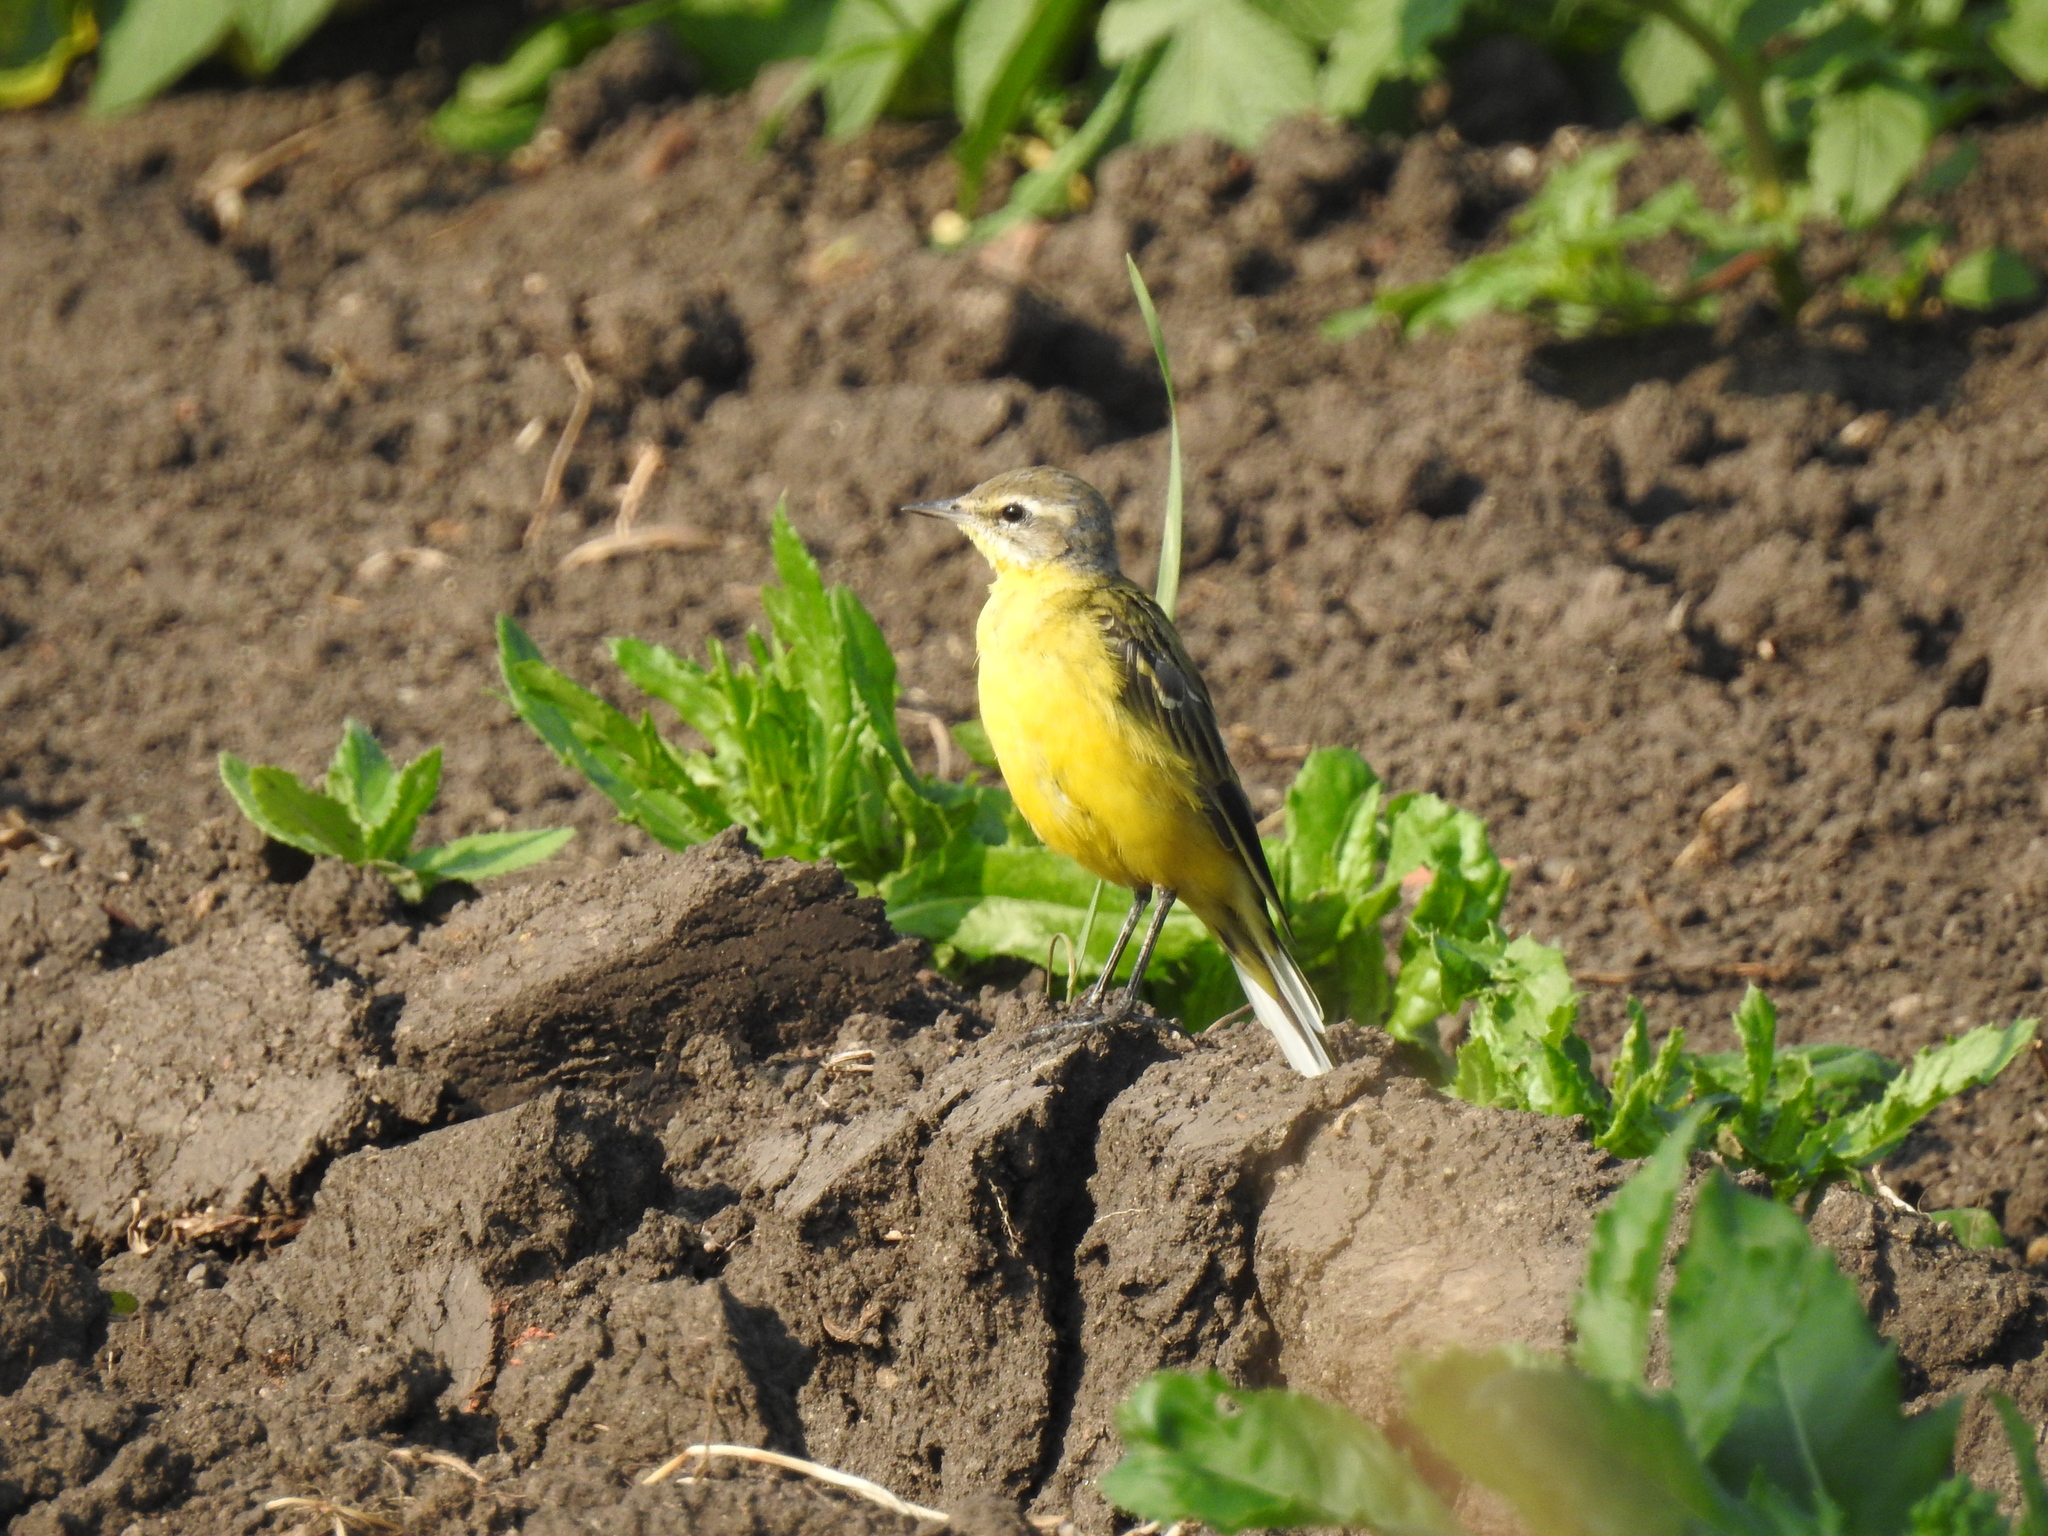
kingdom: Animalia
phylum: Chordata
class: Aves
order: Passeriformes
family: Motacillidae
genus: Motacilla
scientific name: Motacilla flava
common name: Western yellow wagtail
